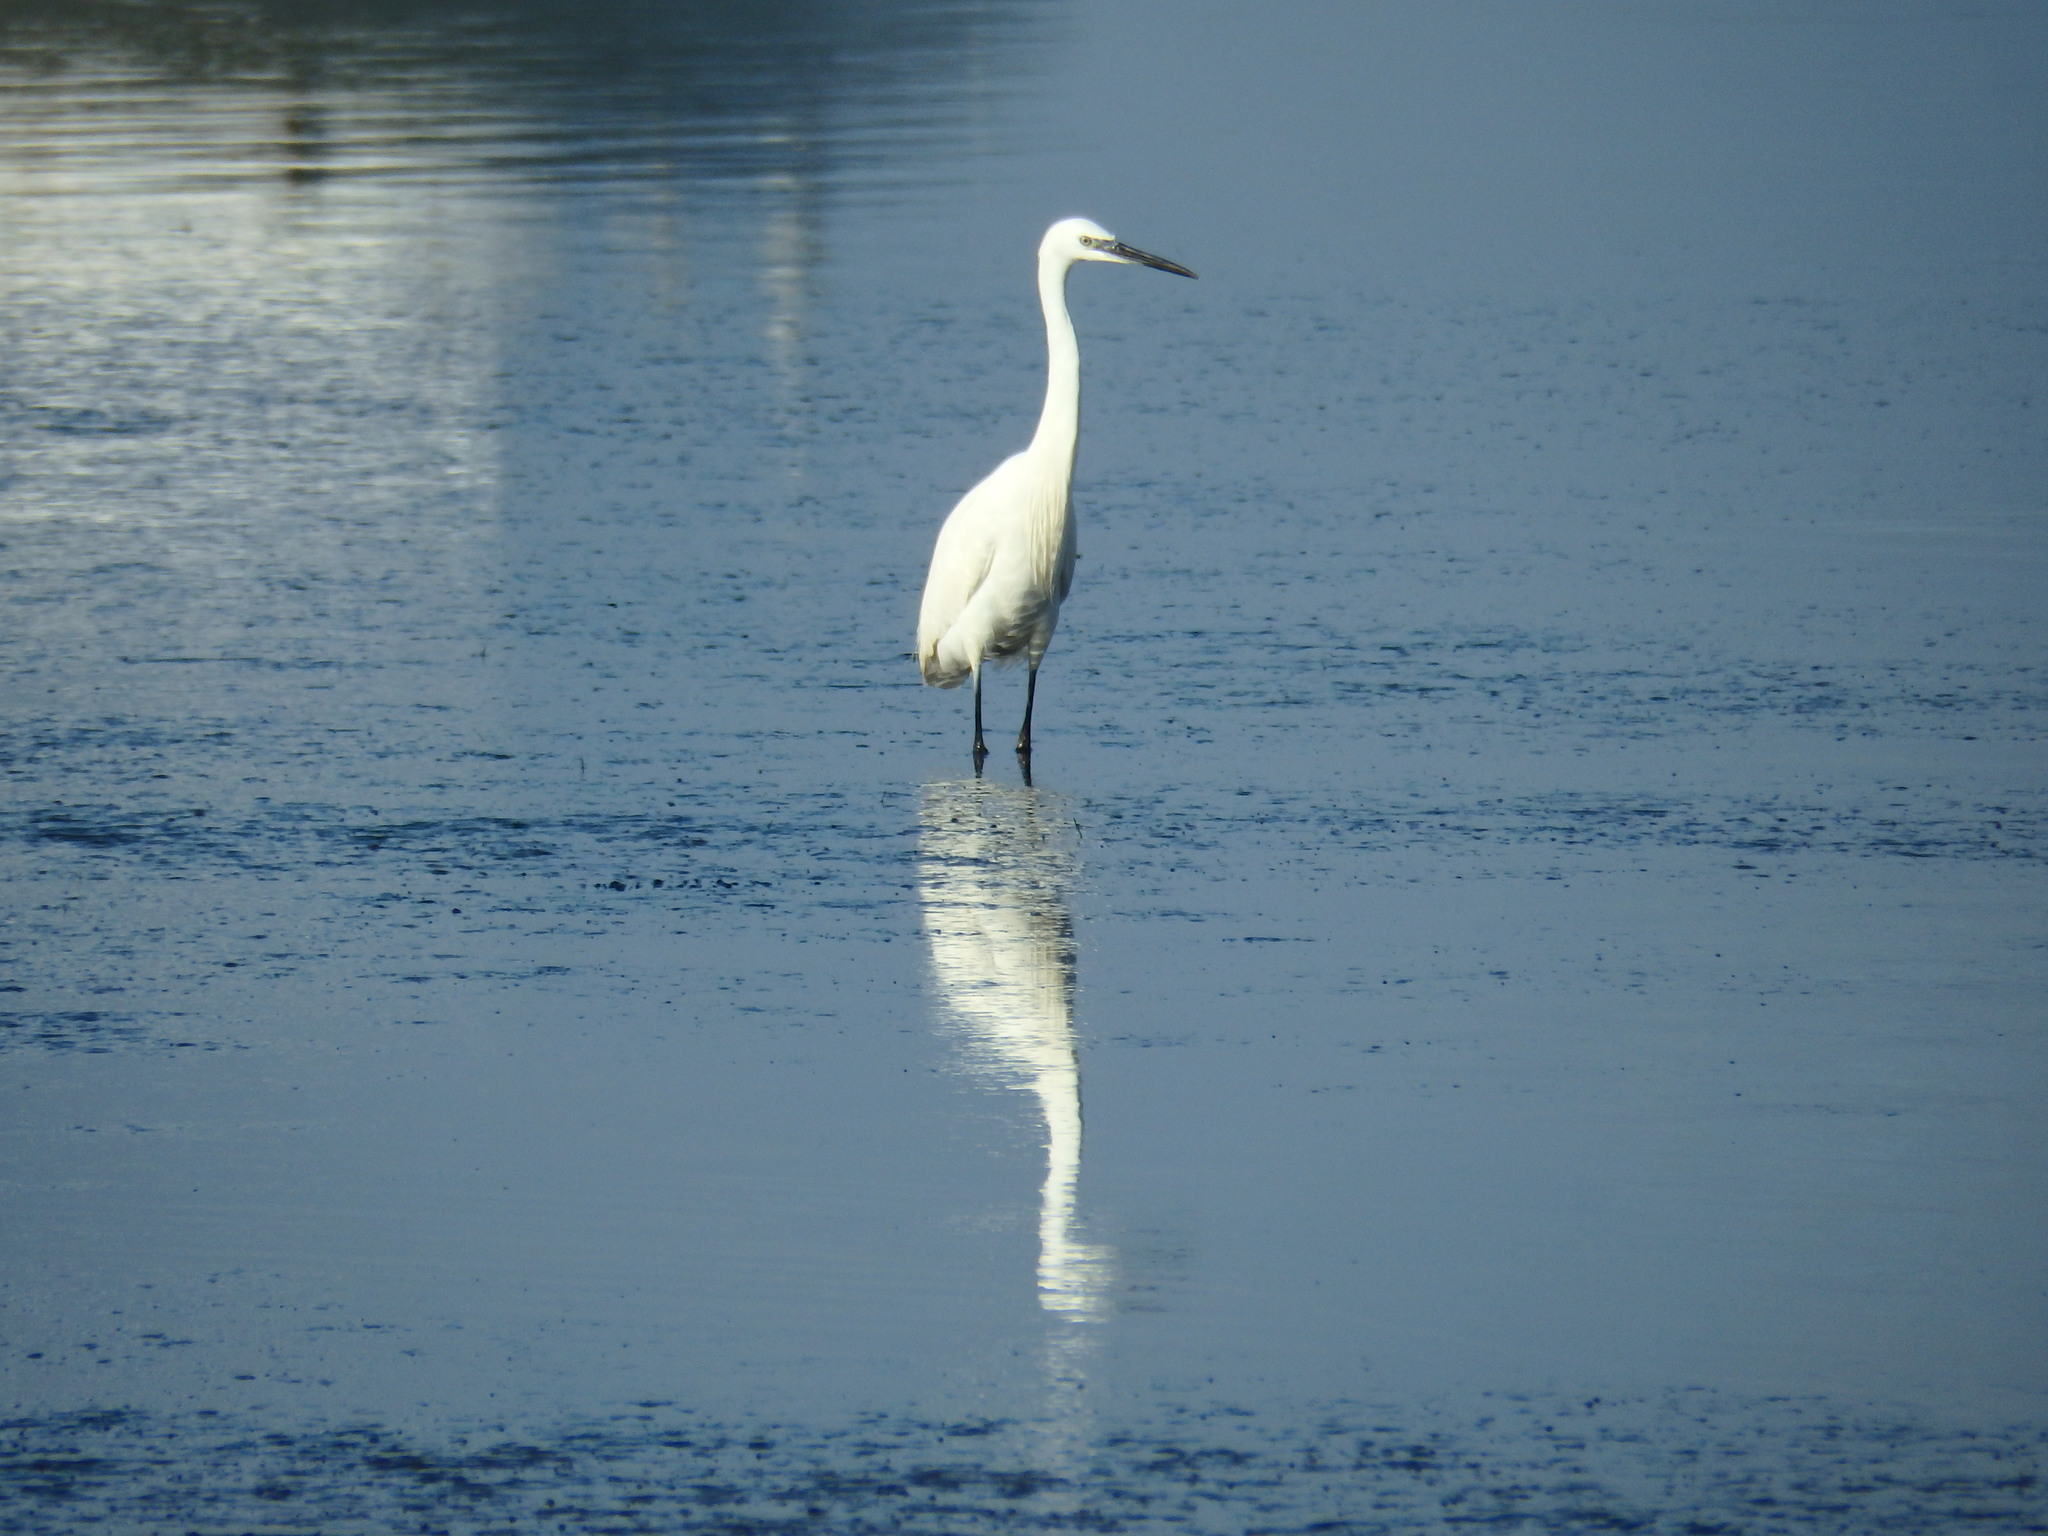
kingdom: Animalia
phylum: Chordata
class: Aves
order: Pelecaniformes
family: Ardeidae
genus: Egretta
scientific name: Egretta garzetta
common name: Little egret
